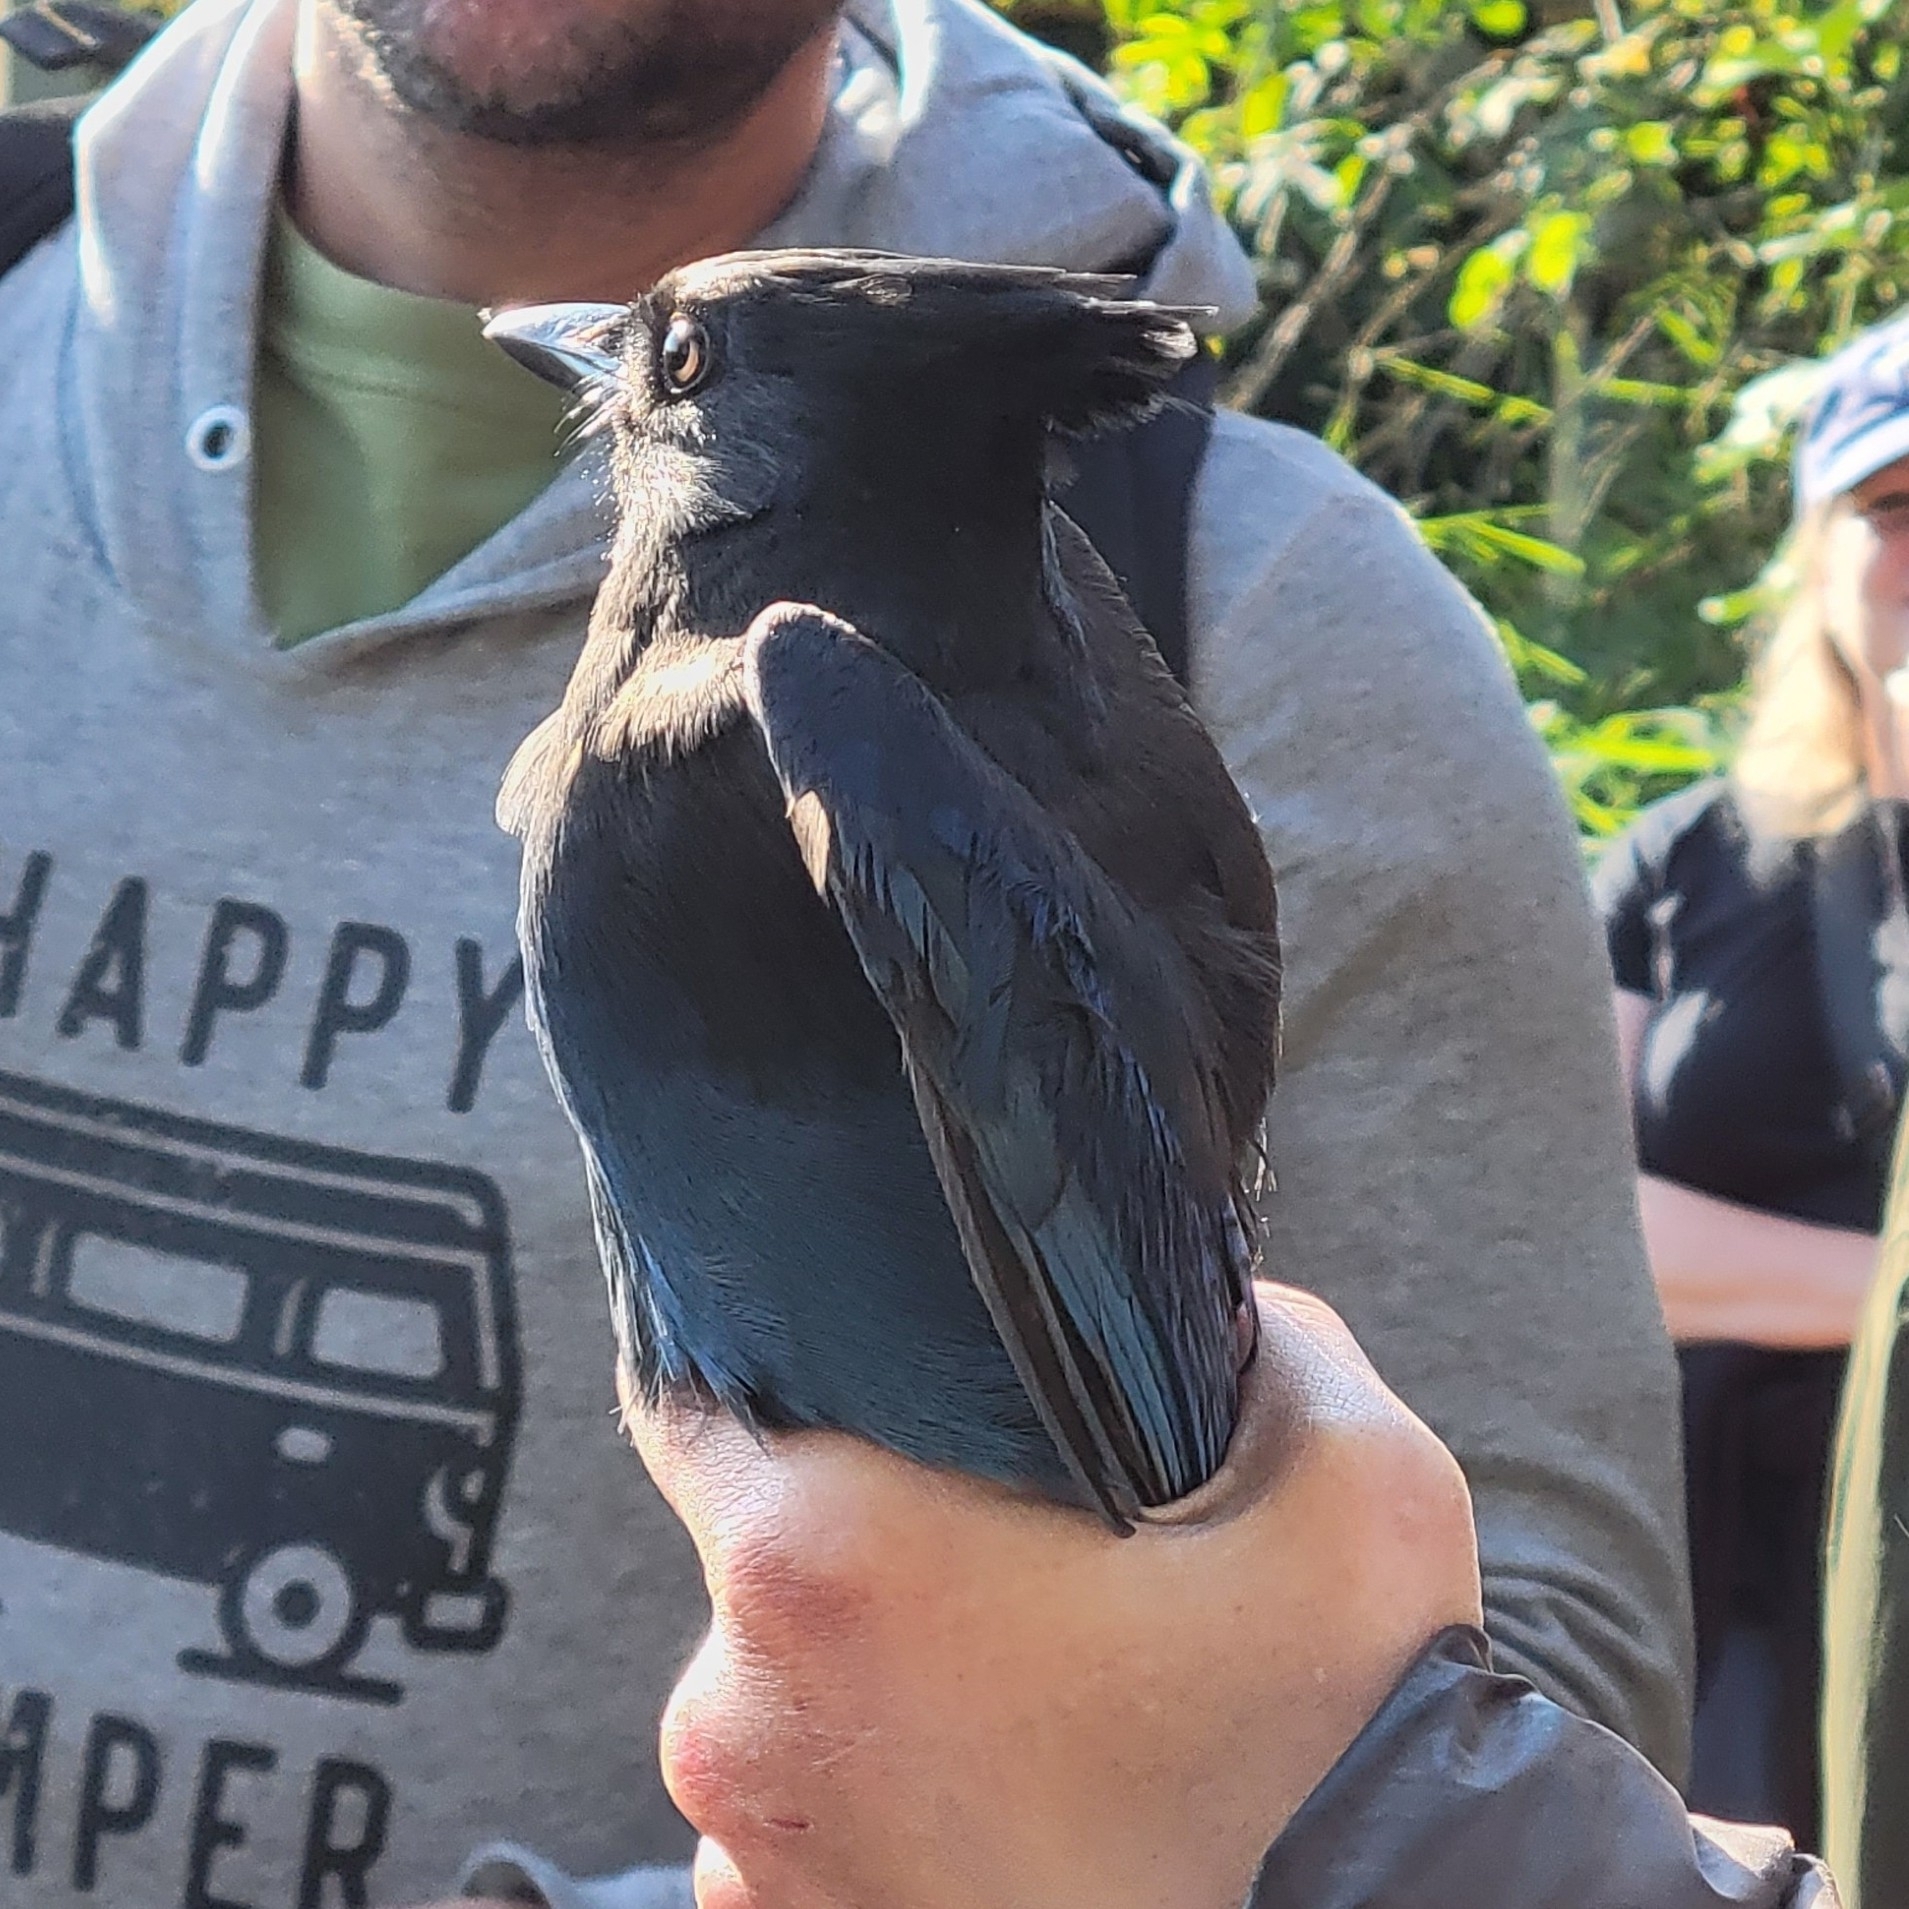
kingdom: Animalia
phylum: Chordata
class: Aves
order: Passeriformes
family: Corvidae
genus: Cyanocitta
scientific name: Cyanocitta stelleri
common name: Steller's jay
